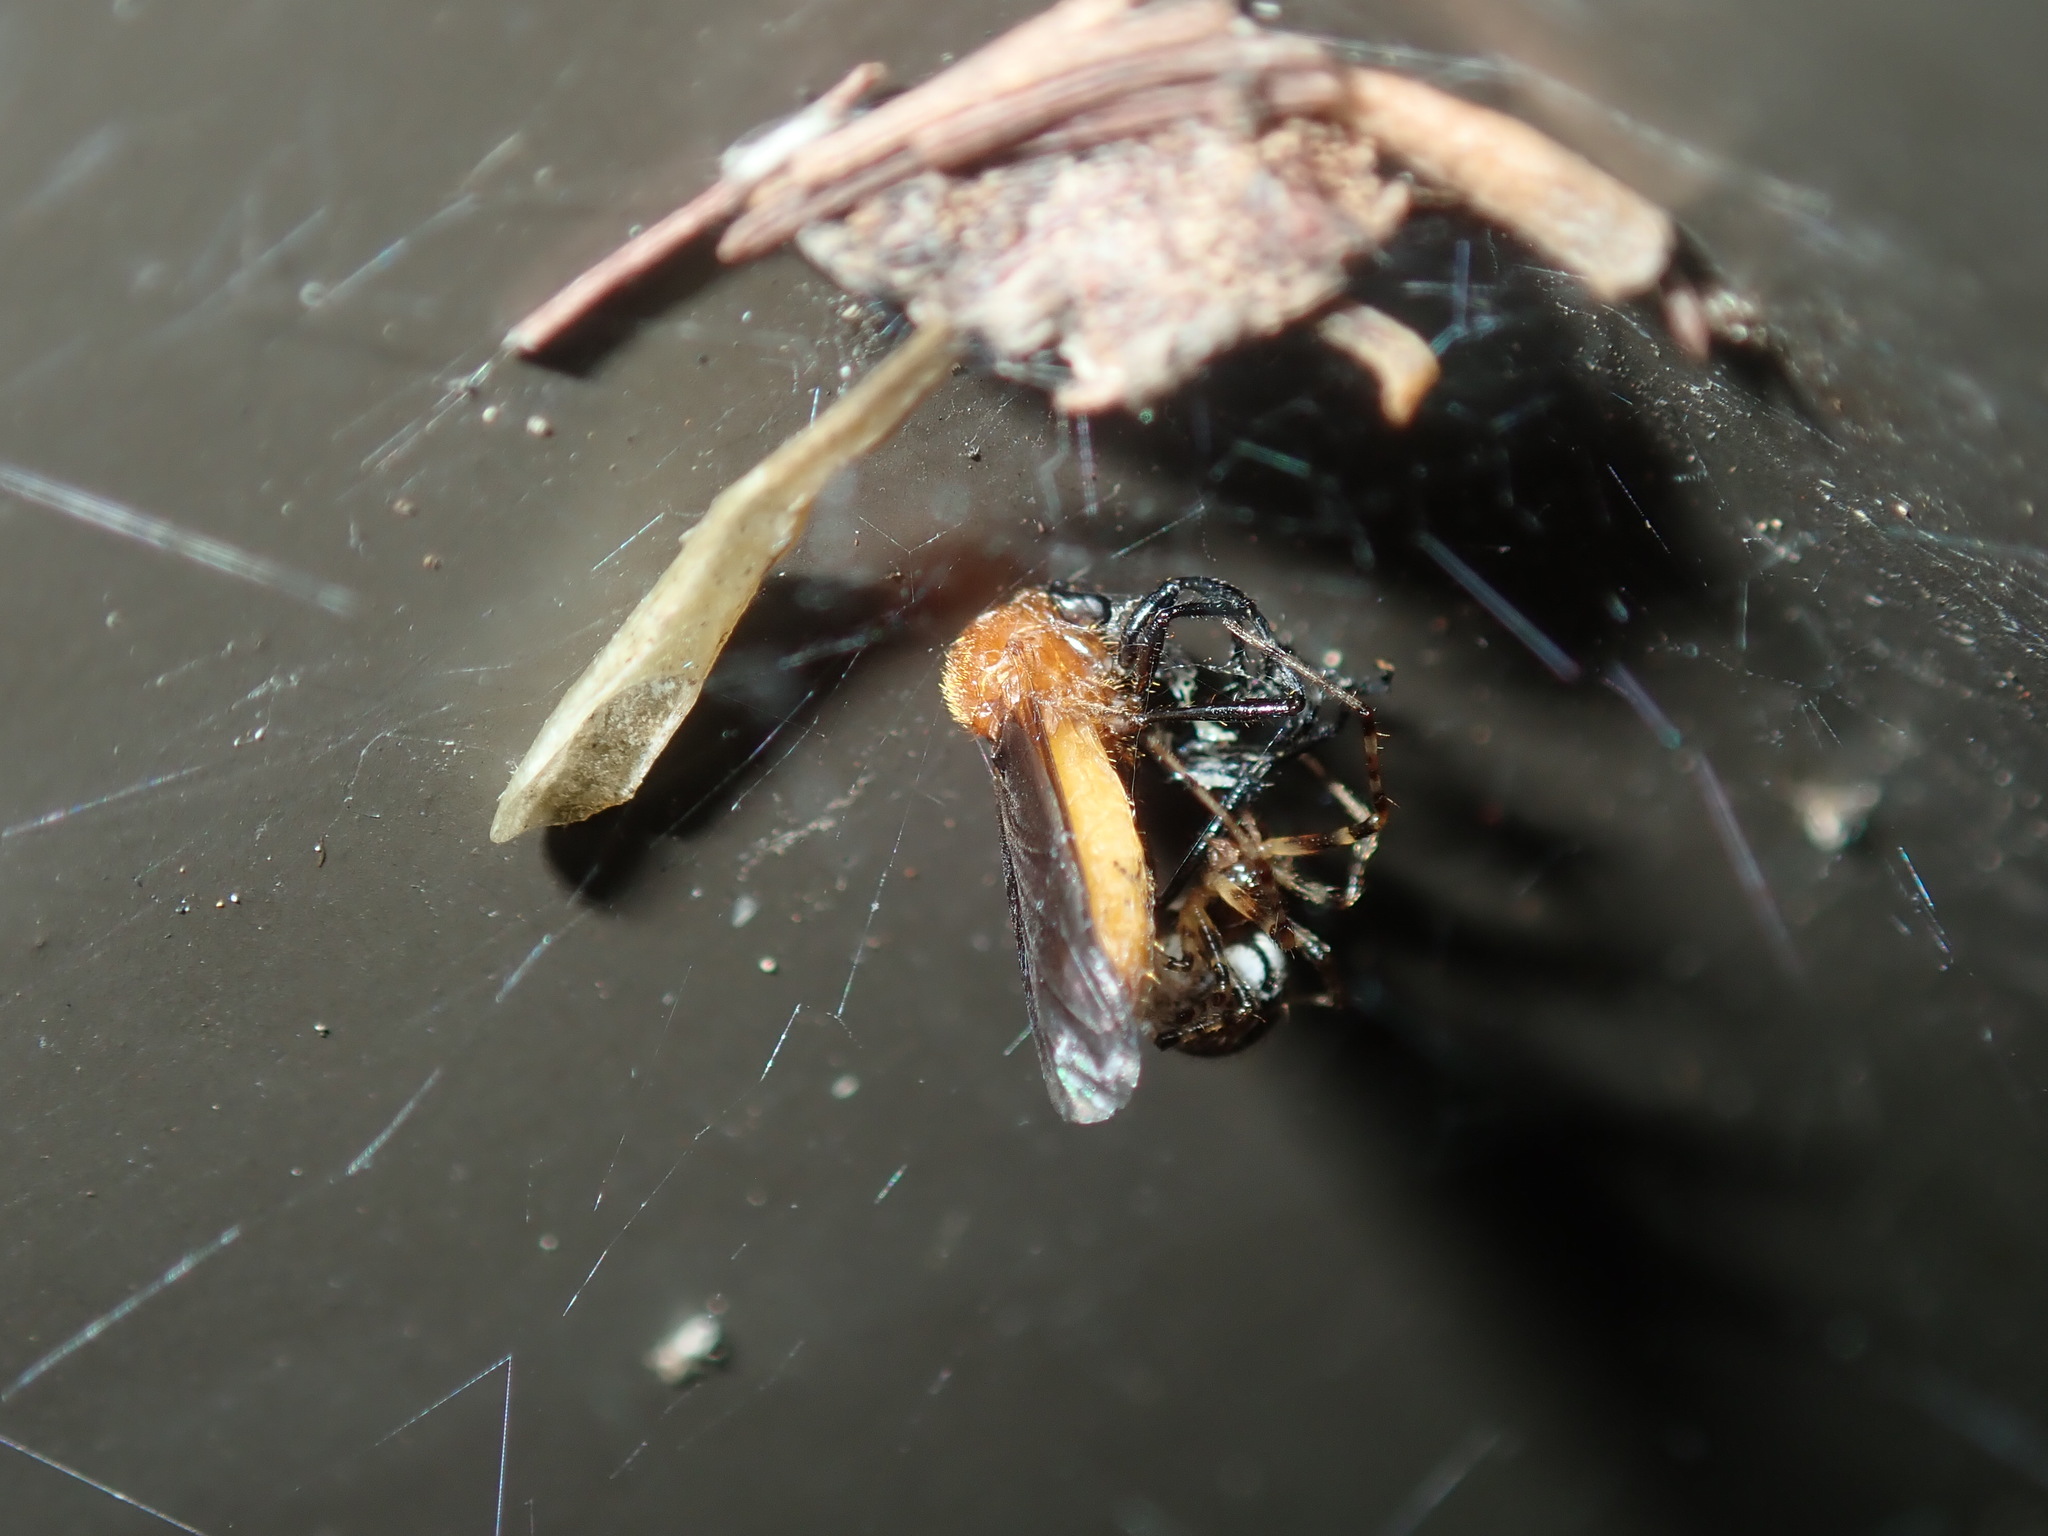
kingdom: Animalia
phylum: Arthropoda
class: Insecta
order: Diptera
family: Bibionidae
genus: Bibio
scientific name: Bibio imitator
